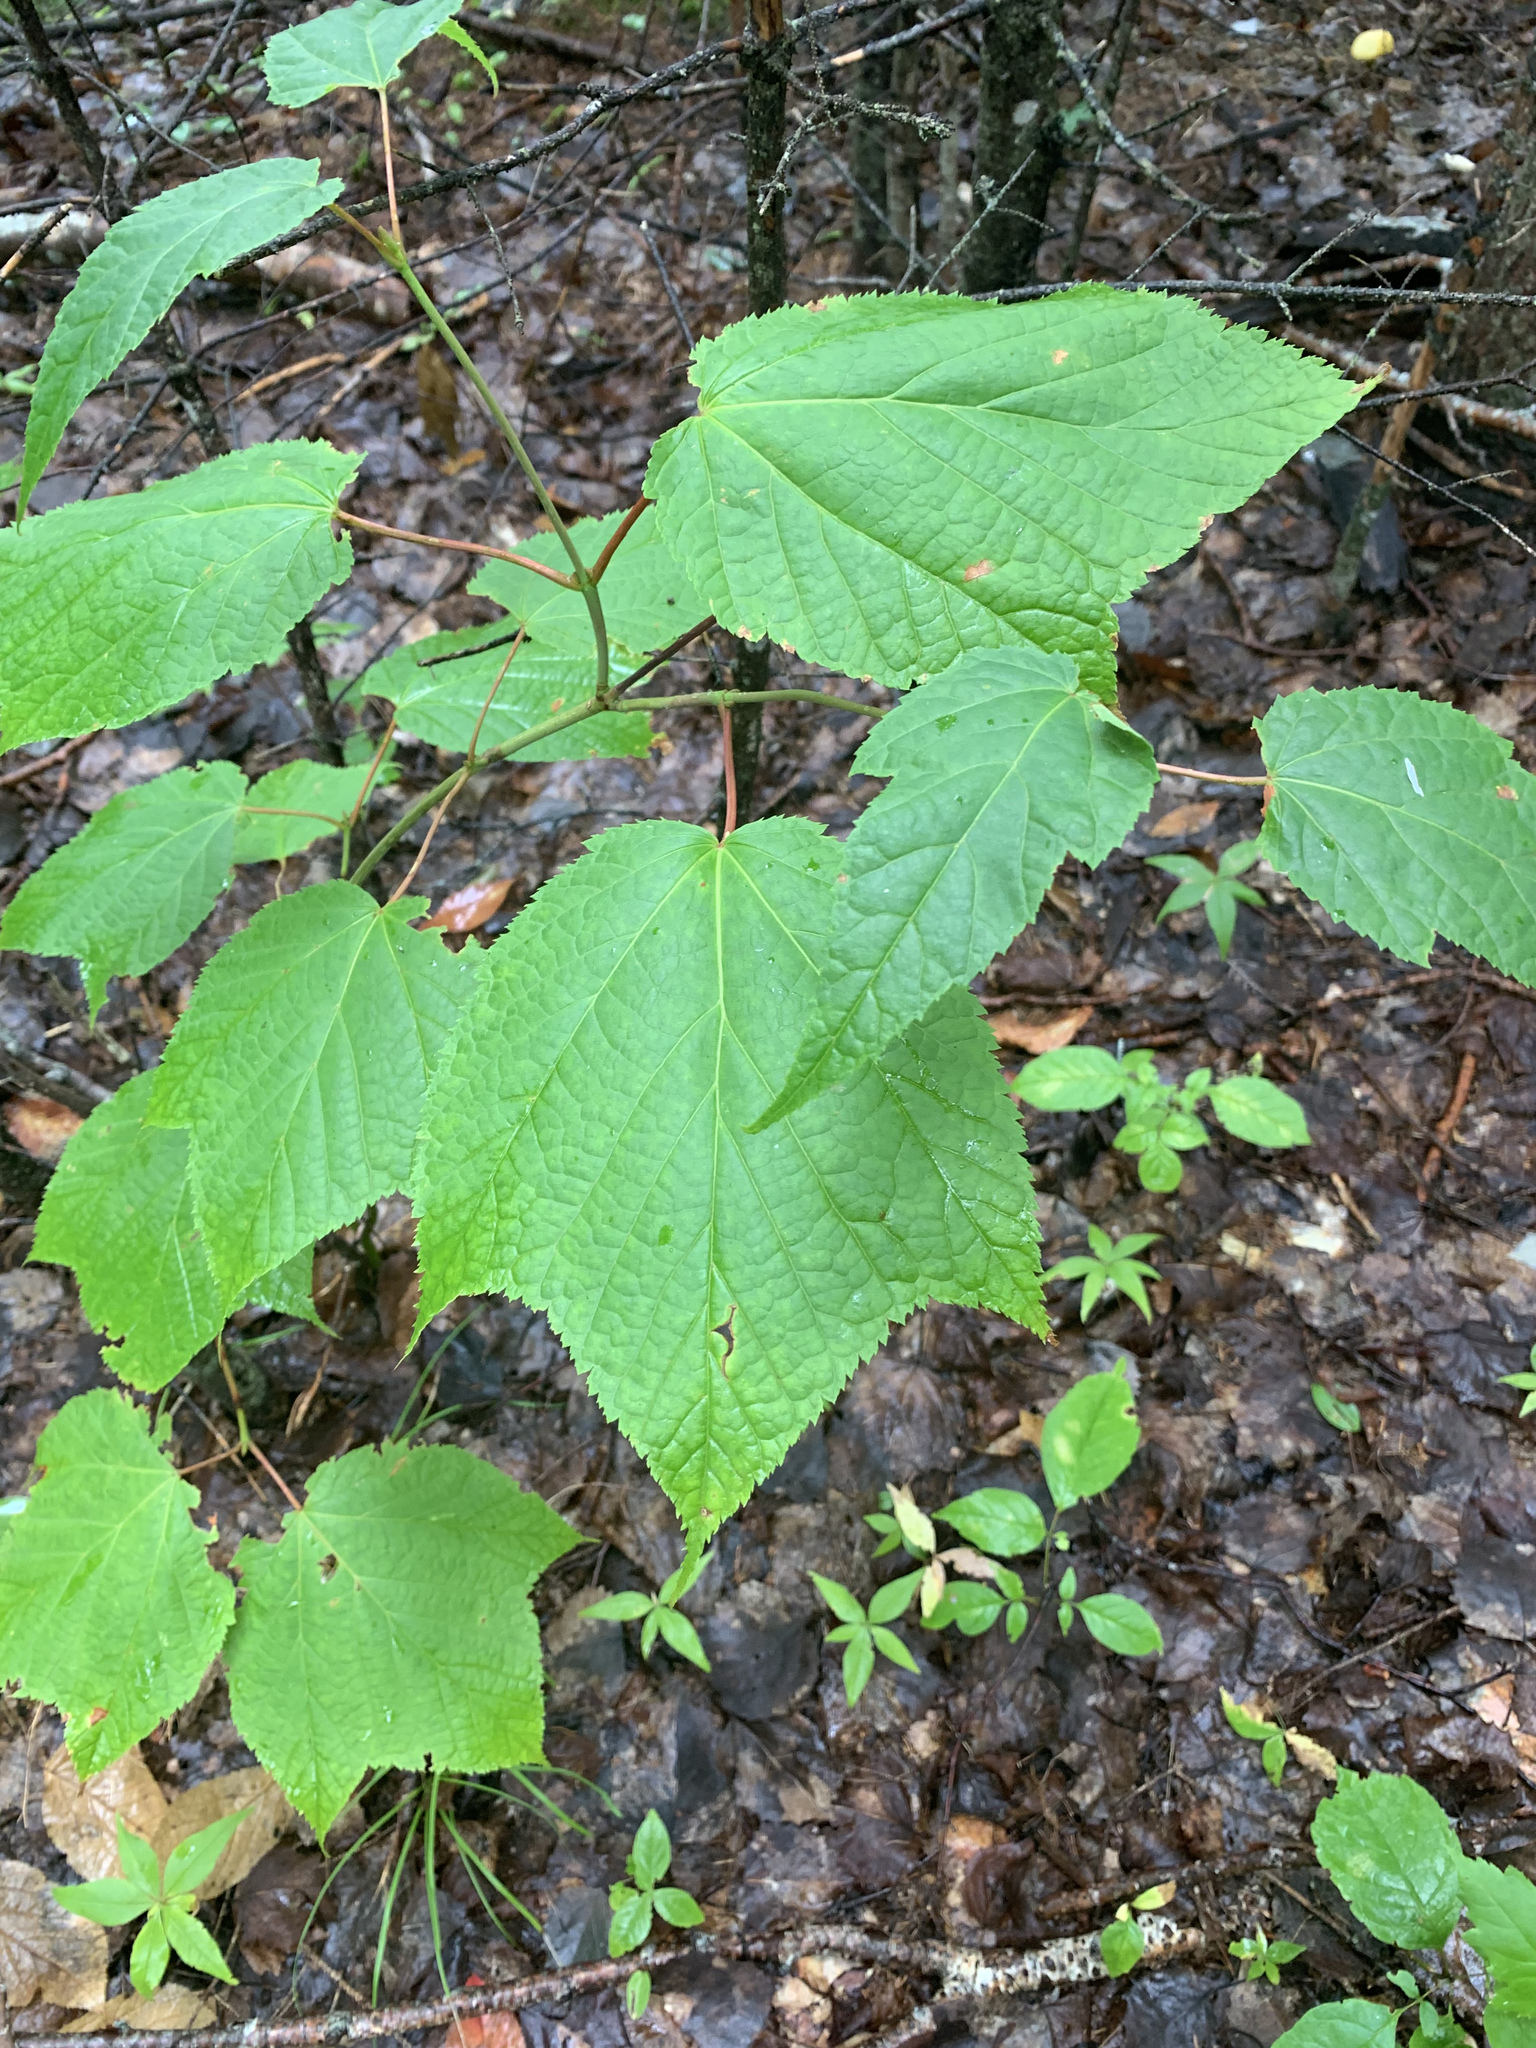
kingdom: Plantae
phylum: Tracheophyta
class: Magnoliopsida
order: Sapindales
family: Sapindaceae
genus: Acer
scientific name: Acer pensylvanicum
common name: Moosewood
